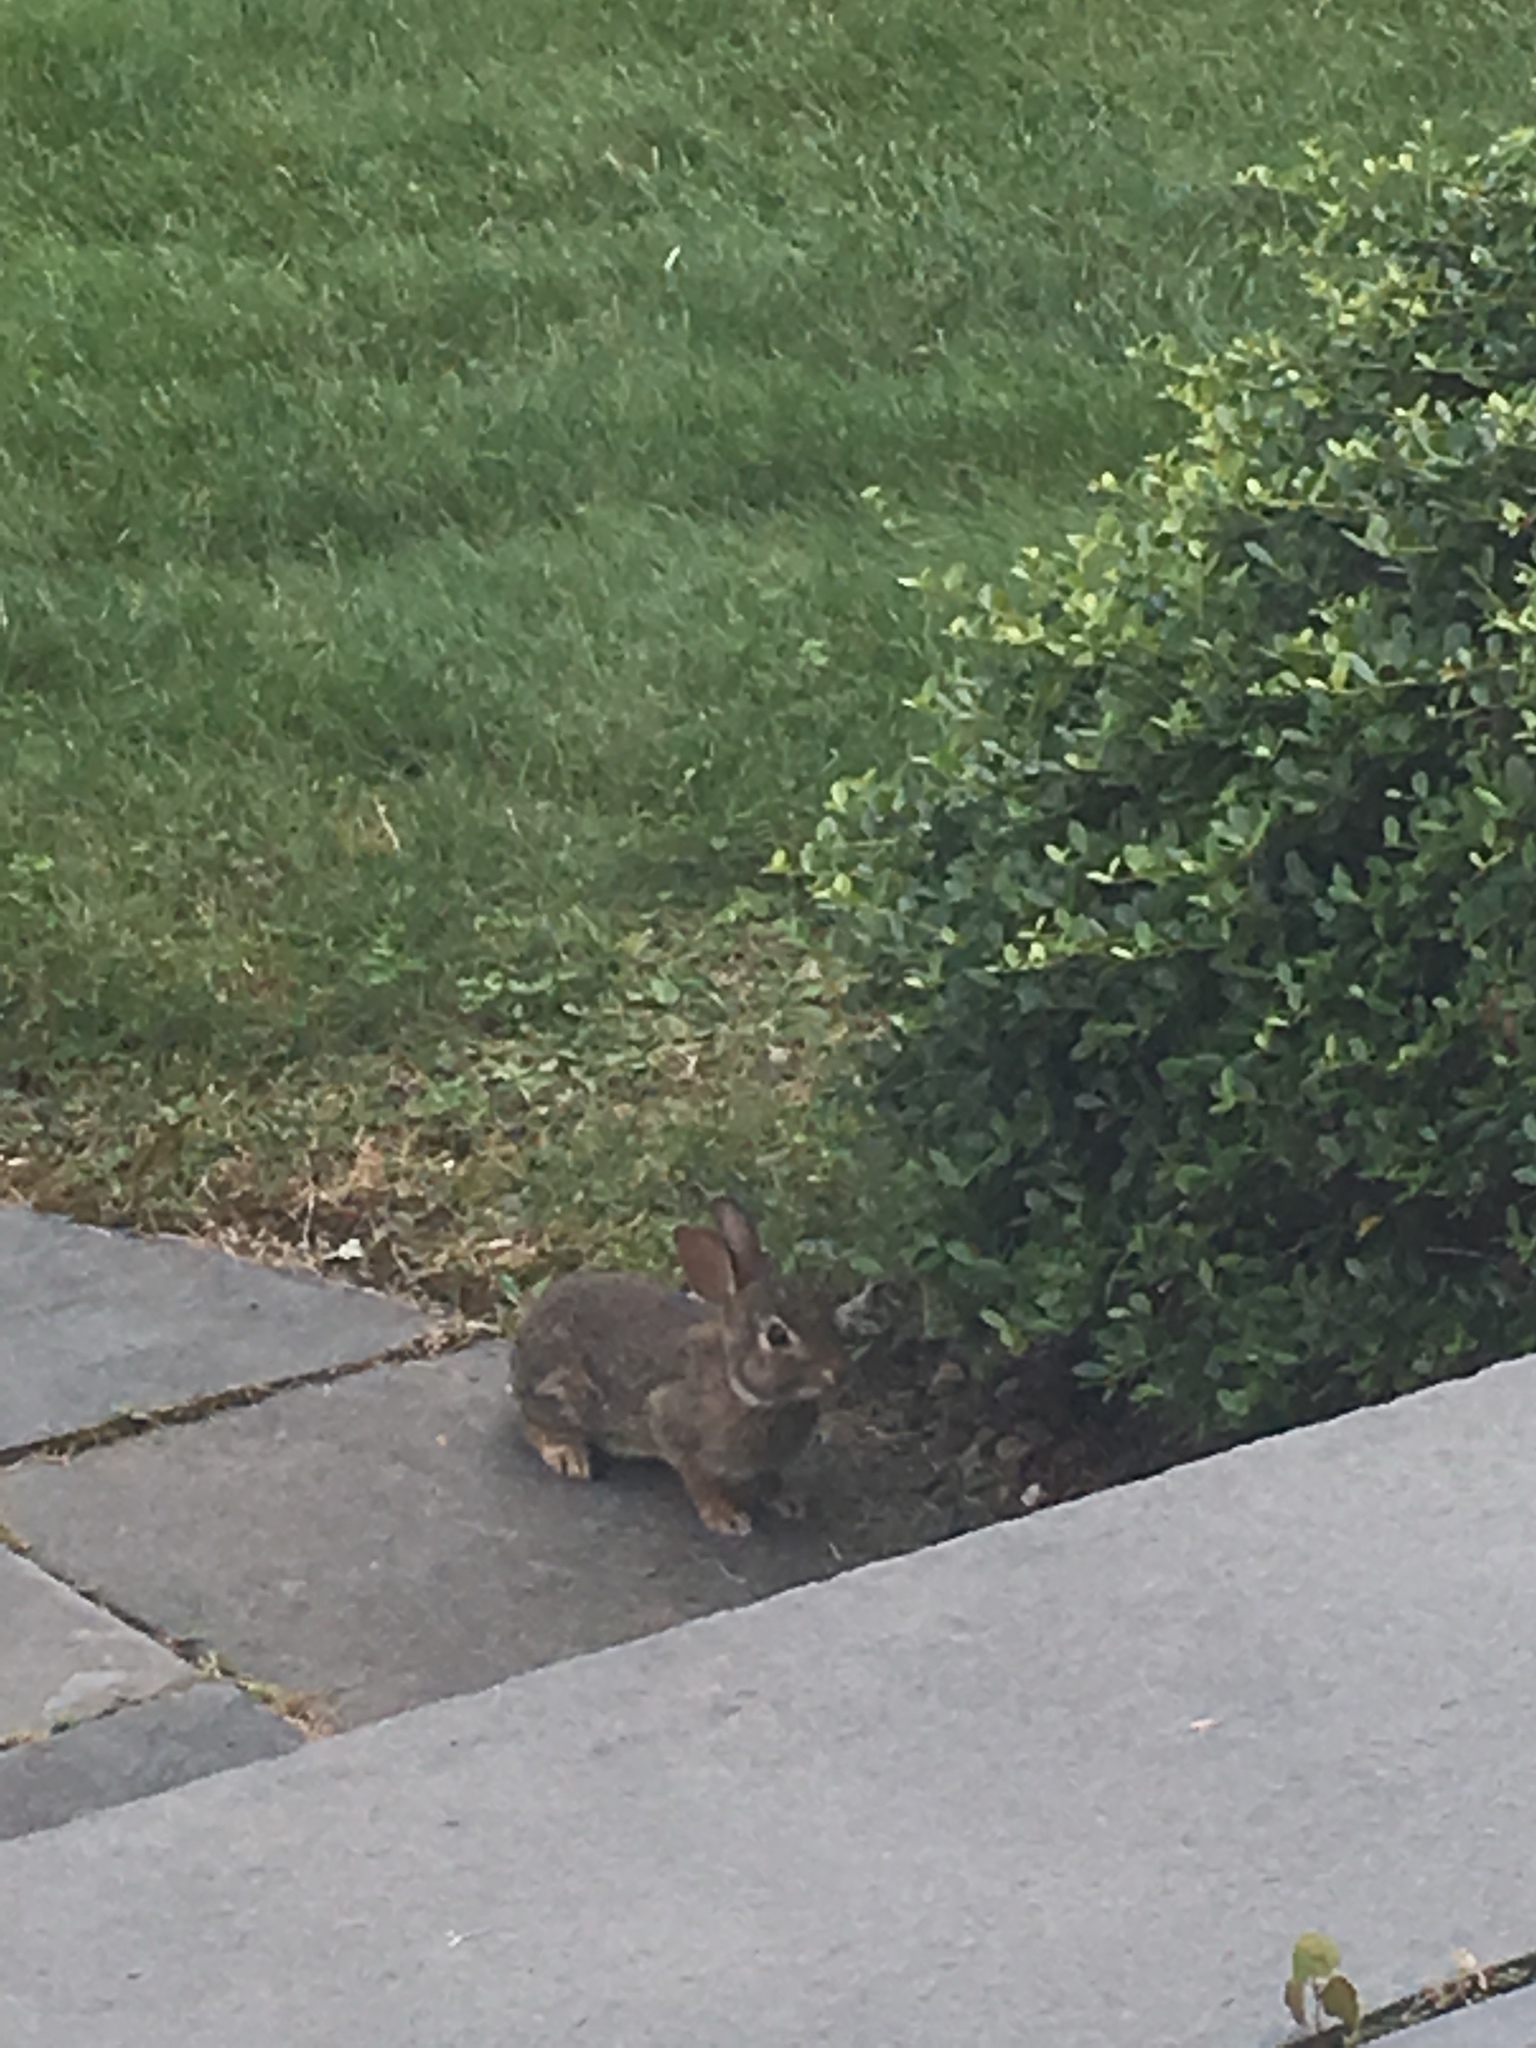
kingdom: Animalia
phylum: Chordata
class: Mammalia
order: Lagomorpha
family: Leporidae
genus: Sylvilagus
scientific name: Sylvilagus floridanus
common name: Eastern cottontail
